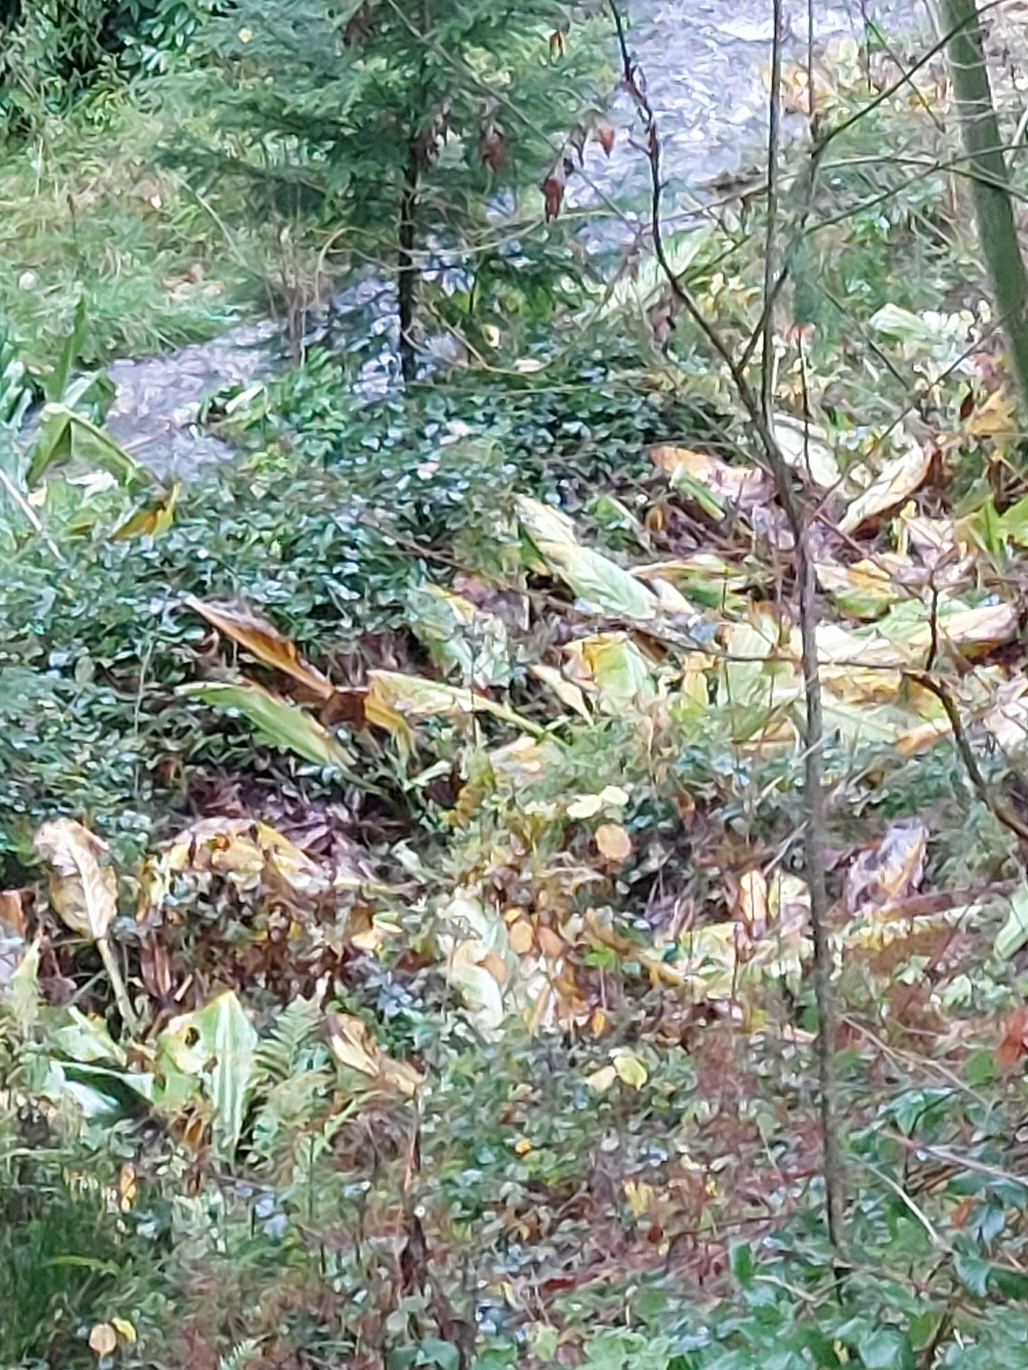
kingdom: Plantae
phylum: Tracheophyta
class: Liliopsida
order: Alismatales
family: Araceae
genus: Lysichiton
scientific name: Lysichiton americanus
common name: American skunk cabbage
